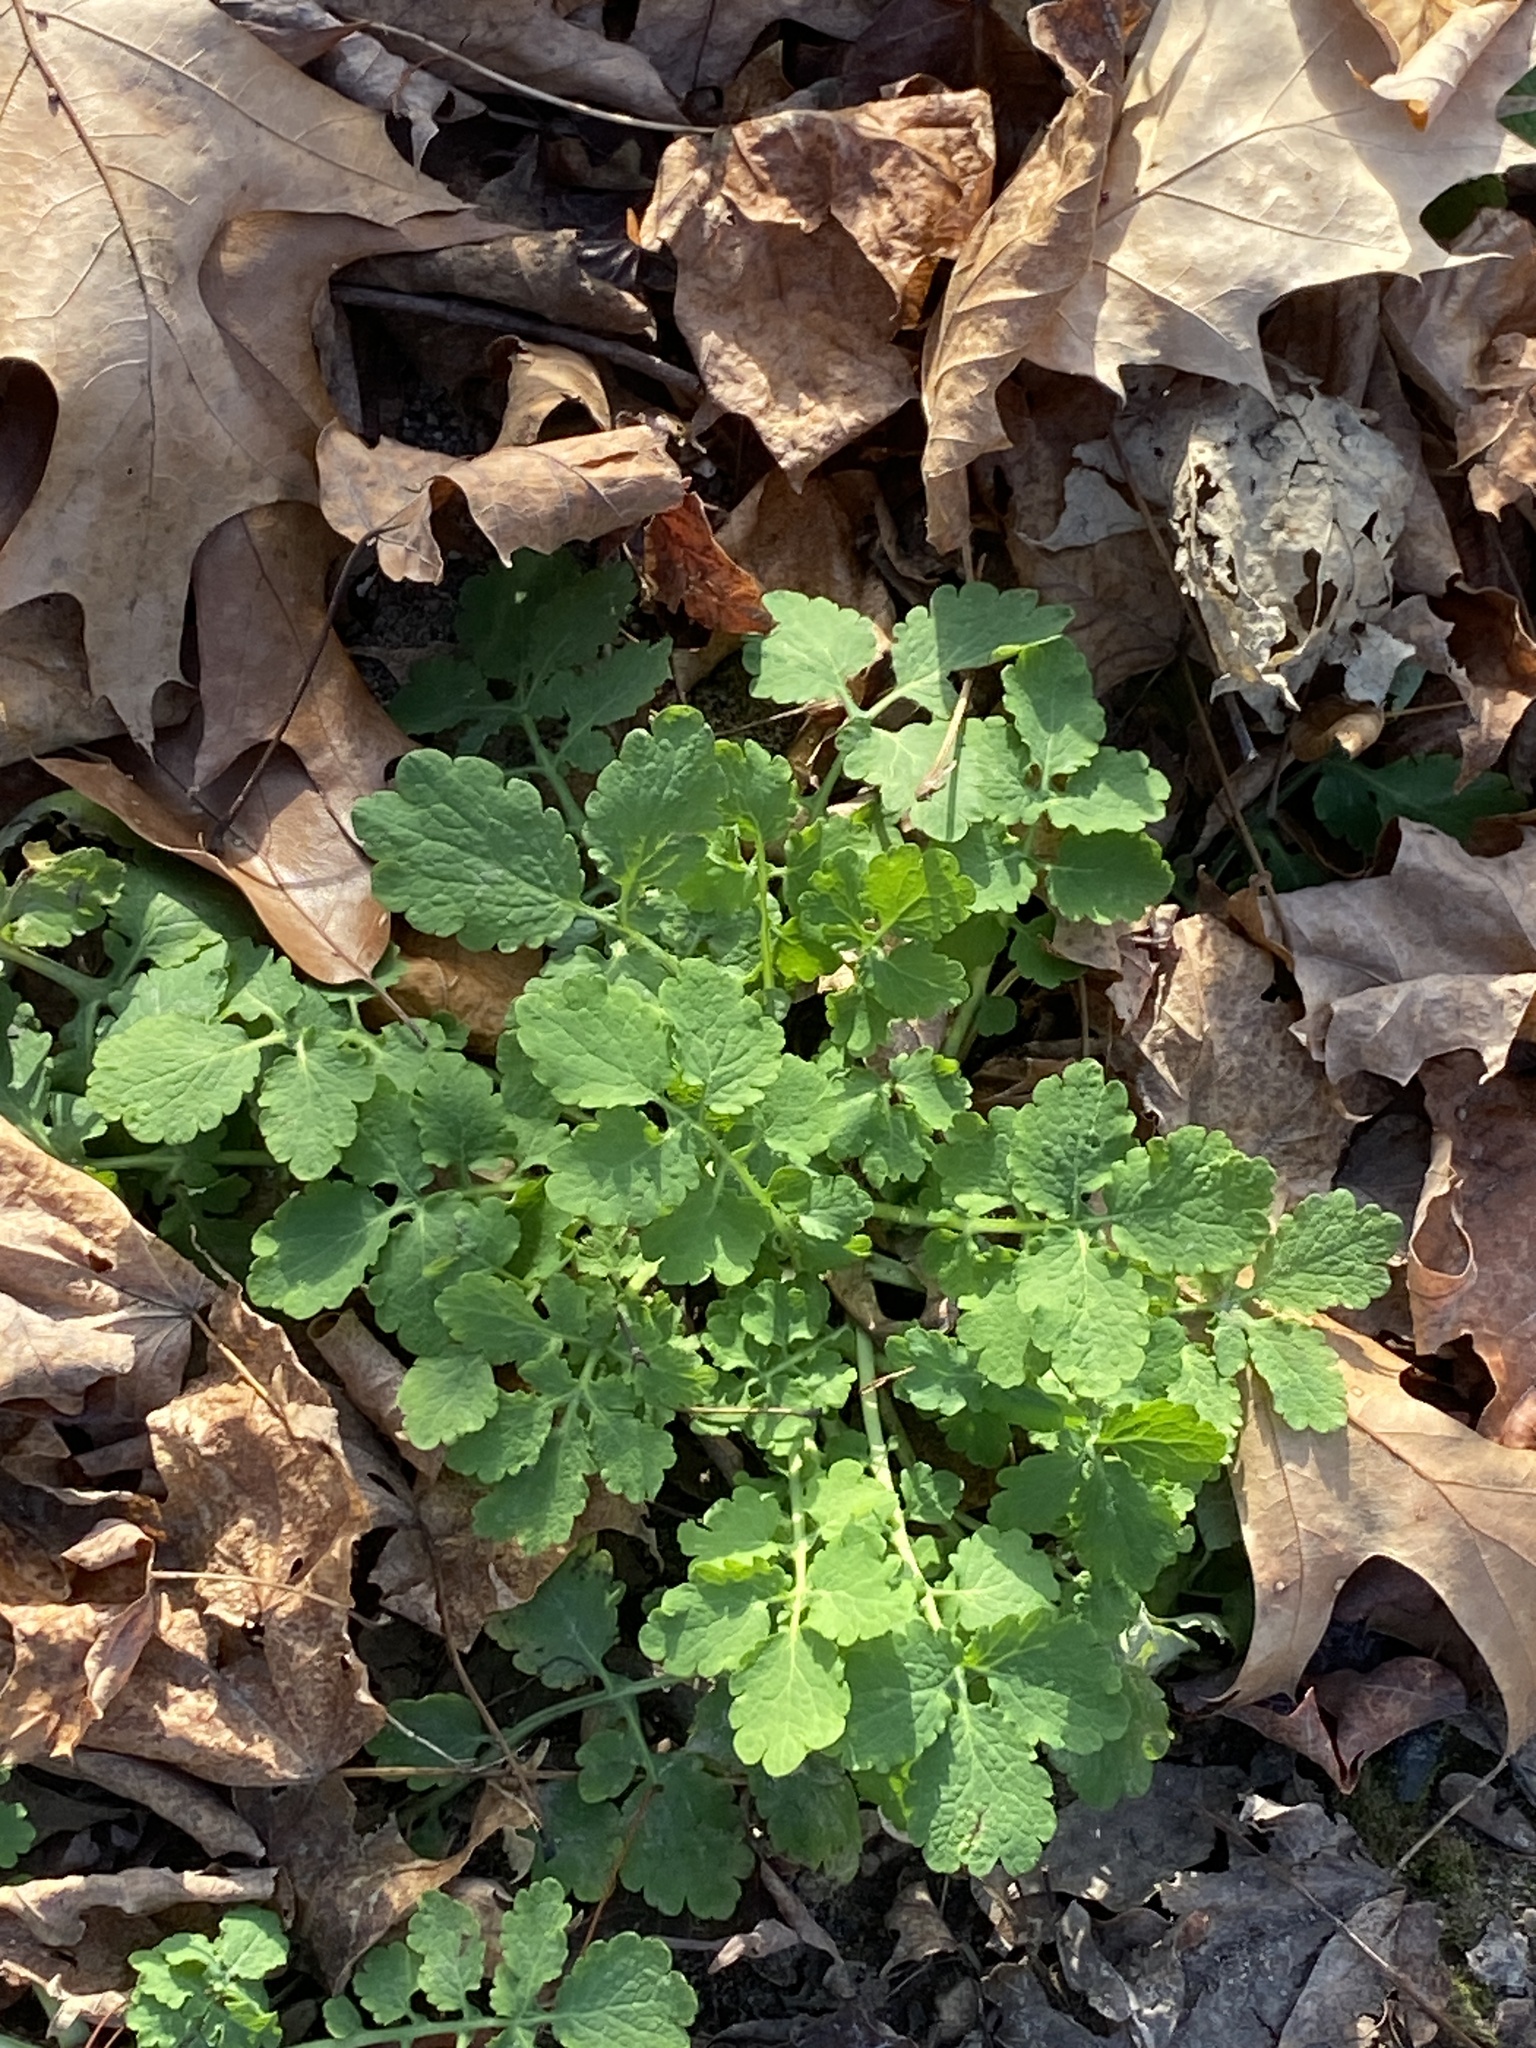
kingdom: Plantae
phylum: Tracheophyta
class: Magnoliopsida
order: Ranunculales
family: Papaveraceae
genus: Chelidonium
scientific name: Chelidonium majus
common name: Greater celandine
